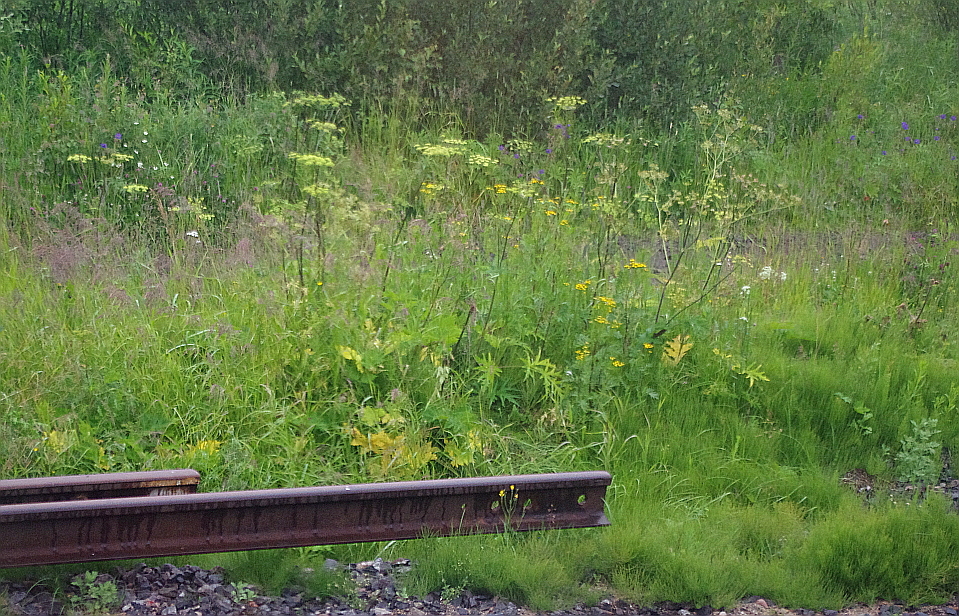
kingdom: Plantae
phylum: Tracheophyta
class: Magnoliopsida
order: Apiales
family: Apiaceae
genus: Heracleum
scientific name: Heracleum sphondylium
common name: Hogweed
